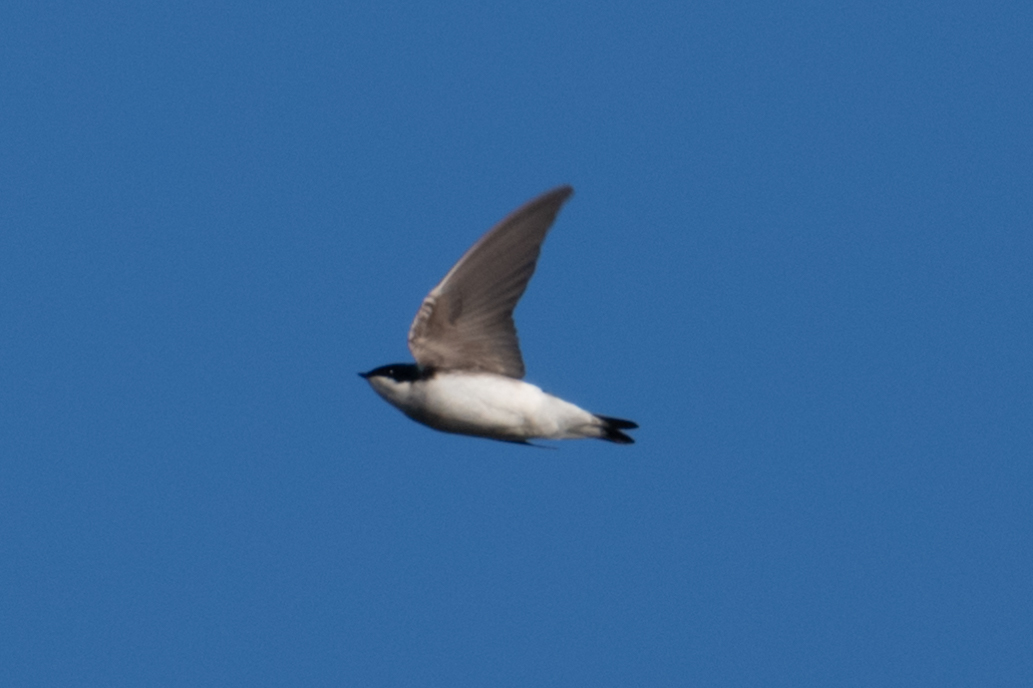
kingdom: Animalia
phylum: Chordata
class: Aves
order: Passeriformes
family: Hirundinidae
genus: Tachycineta
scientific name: Tachycineta bicolor
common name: Tree swallow
